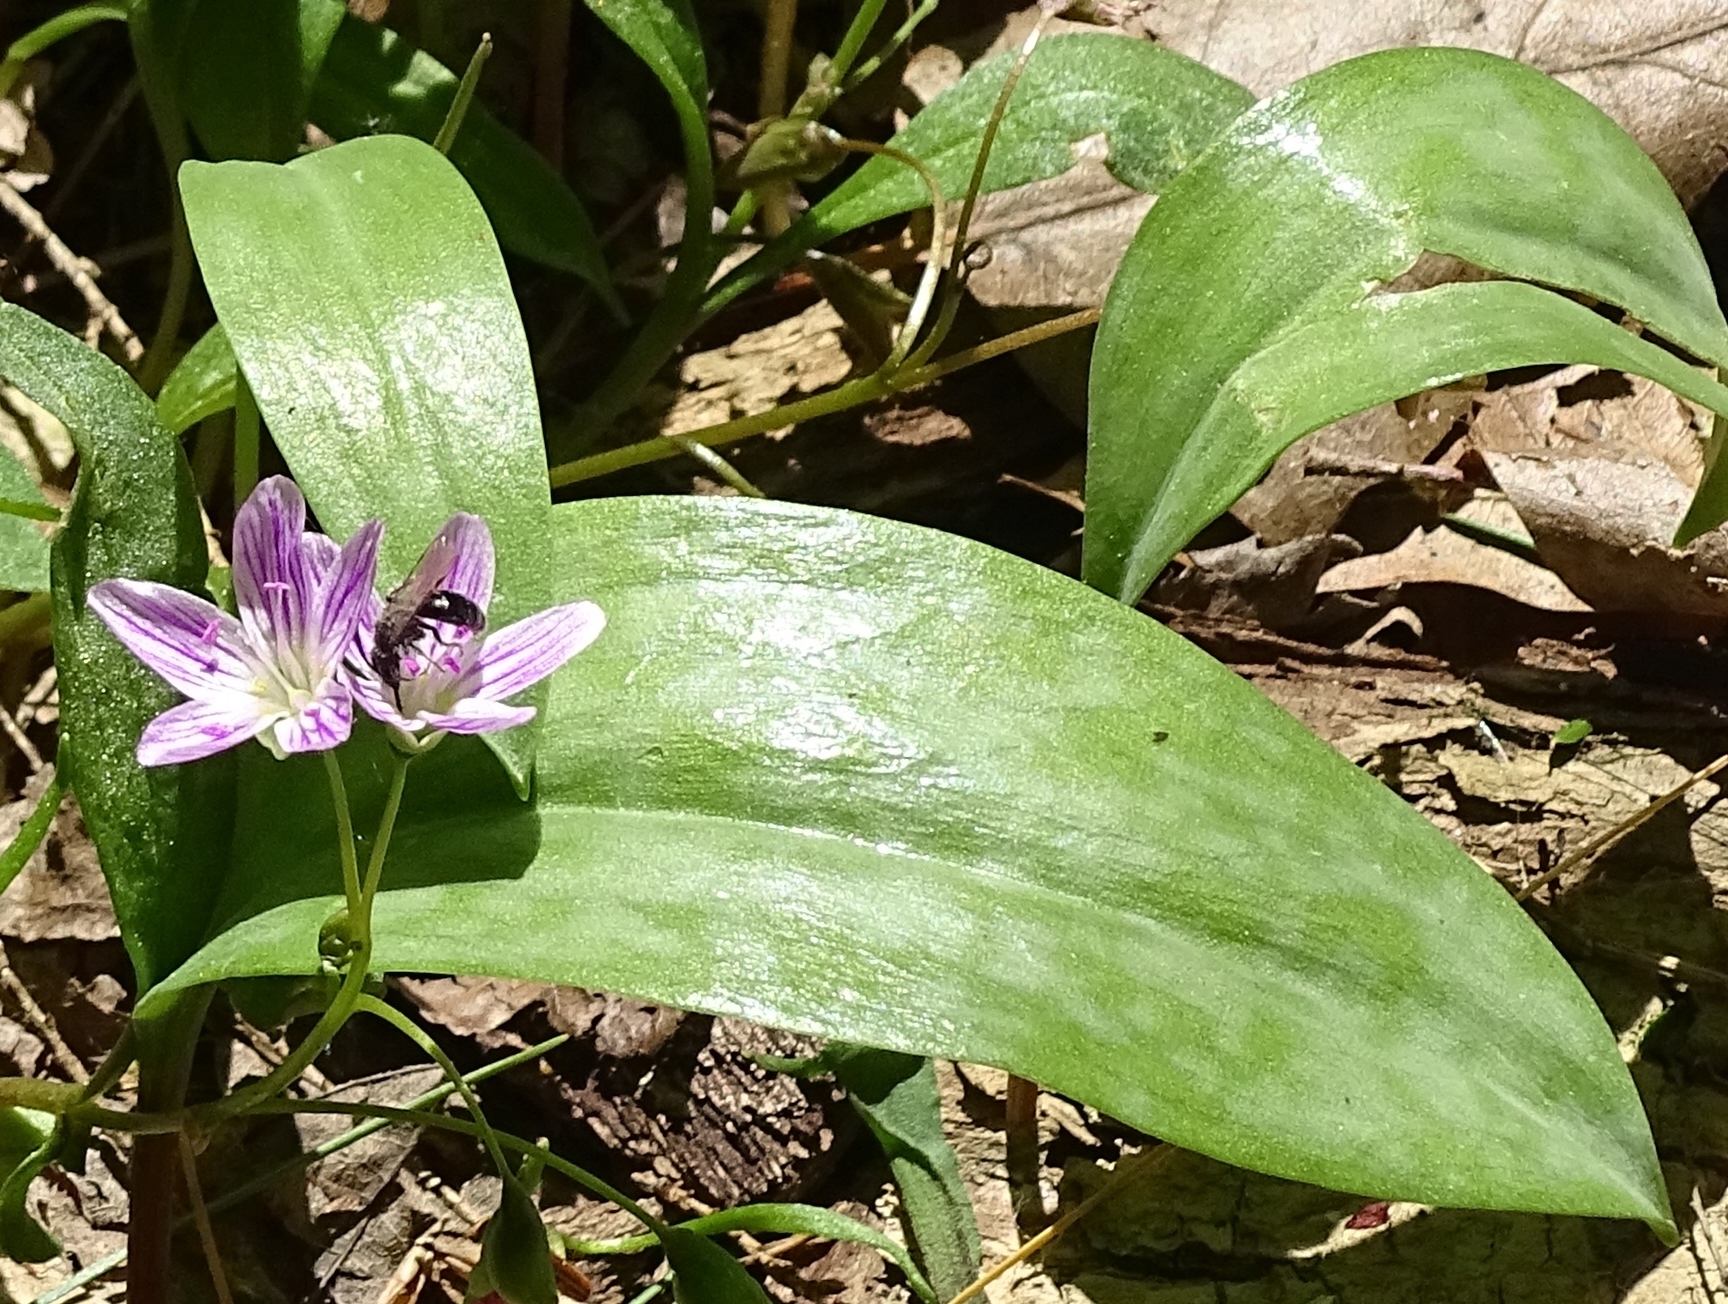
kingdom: Plantae
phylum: Tracheophyta
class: Magnoliopsida
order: Caryophyllales
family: Montiaceae
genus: Claytonia
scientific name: Claytonia caroliniana
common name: Carolina spring beauty
